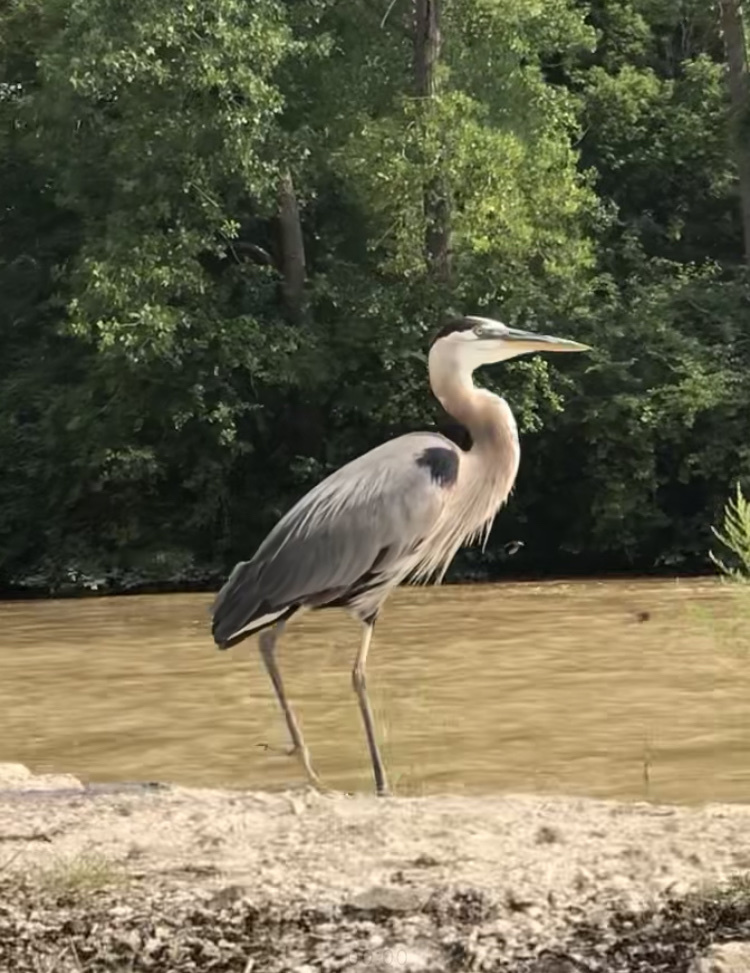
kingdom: Animalia
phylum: Chordata
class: Aves
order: Pelecaniformes
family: Ardeidae
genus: Ardea
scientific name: Ardea herodias
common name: Great blue heron
